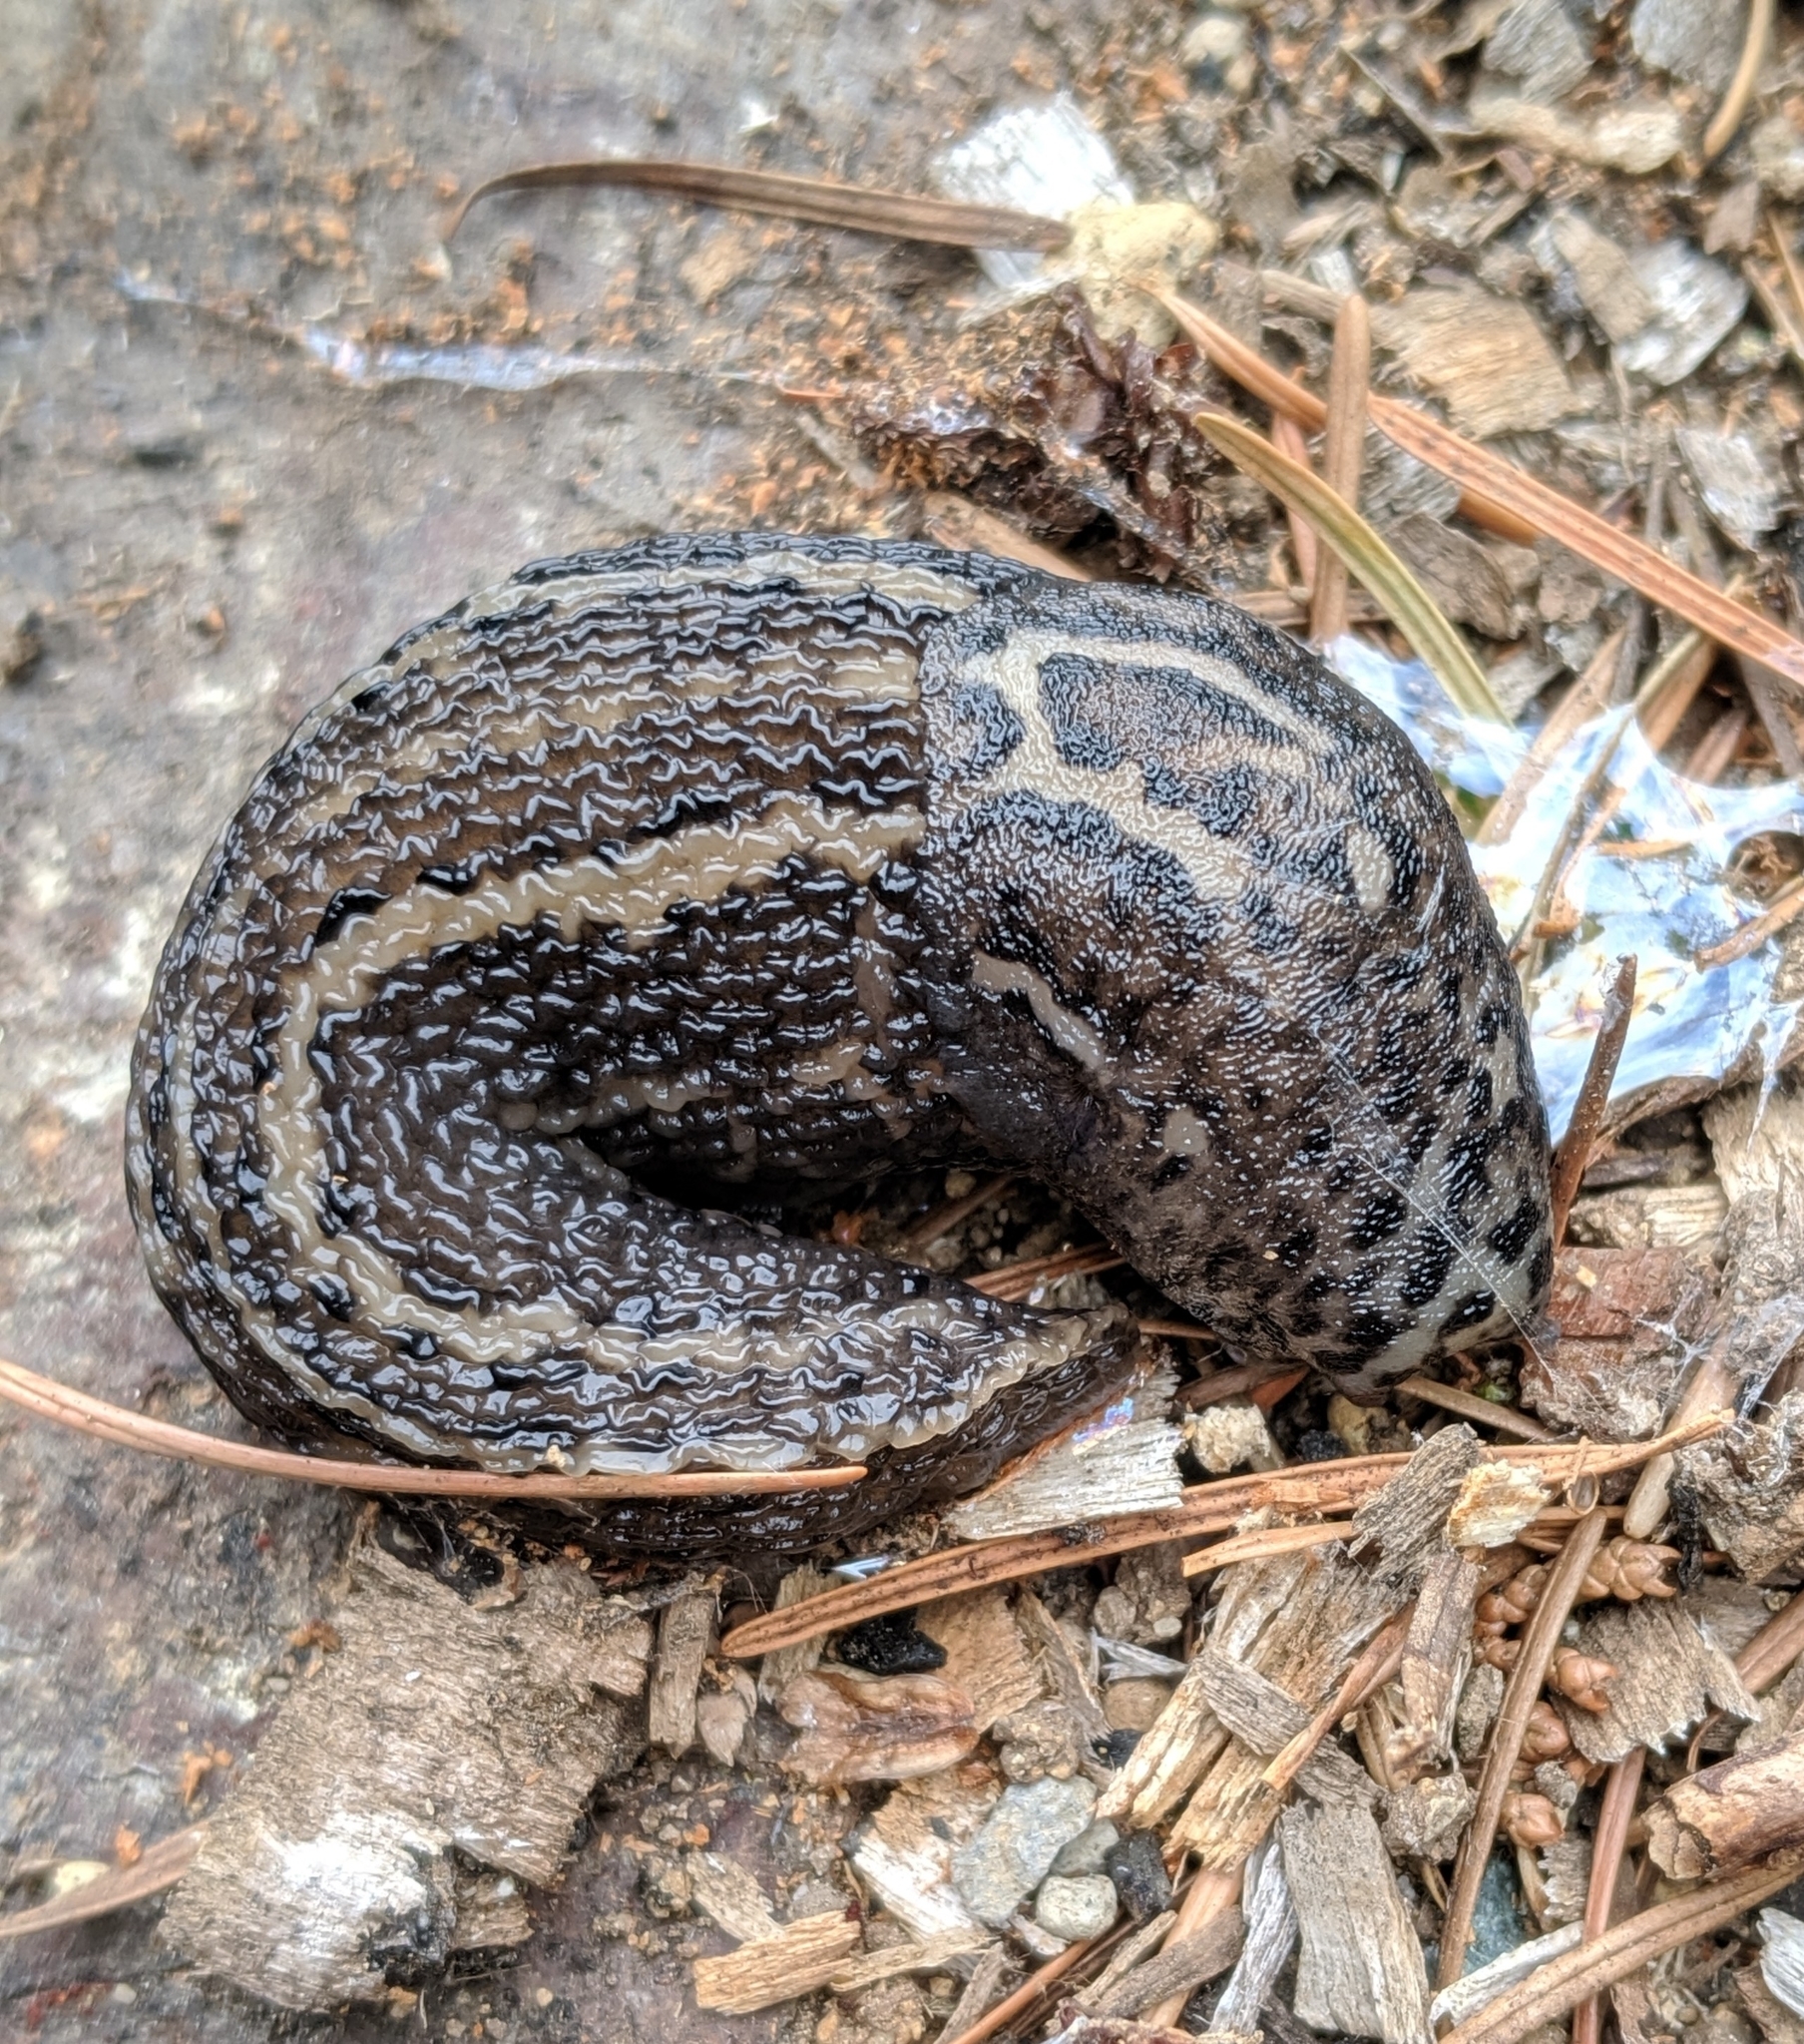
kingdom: Animalia
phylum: Mollusca
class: Gastropoda
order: Stylommatophora
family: Limacidae
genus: Limax
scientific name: Limax maximus
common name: Great grey slug
